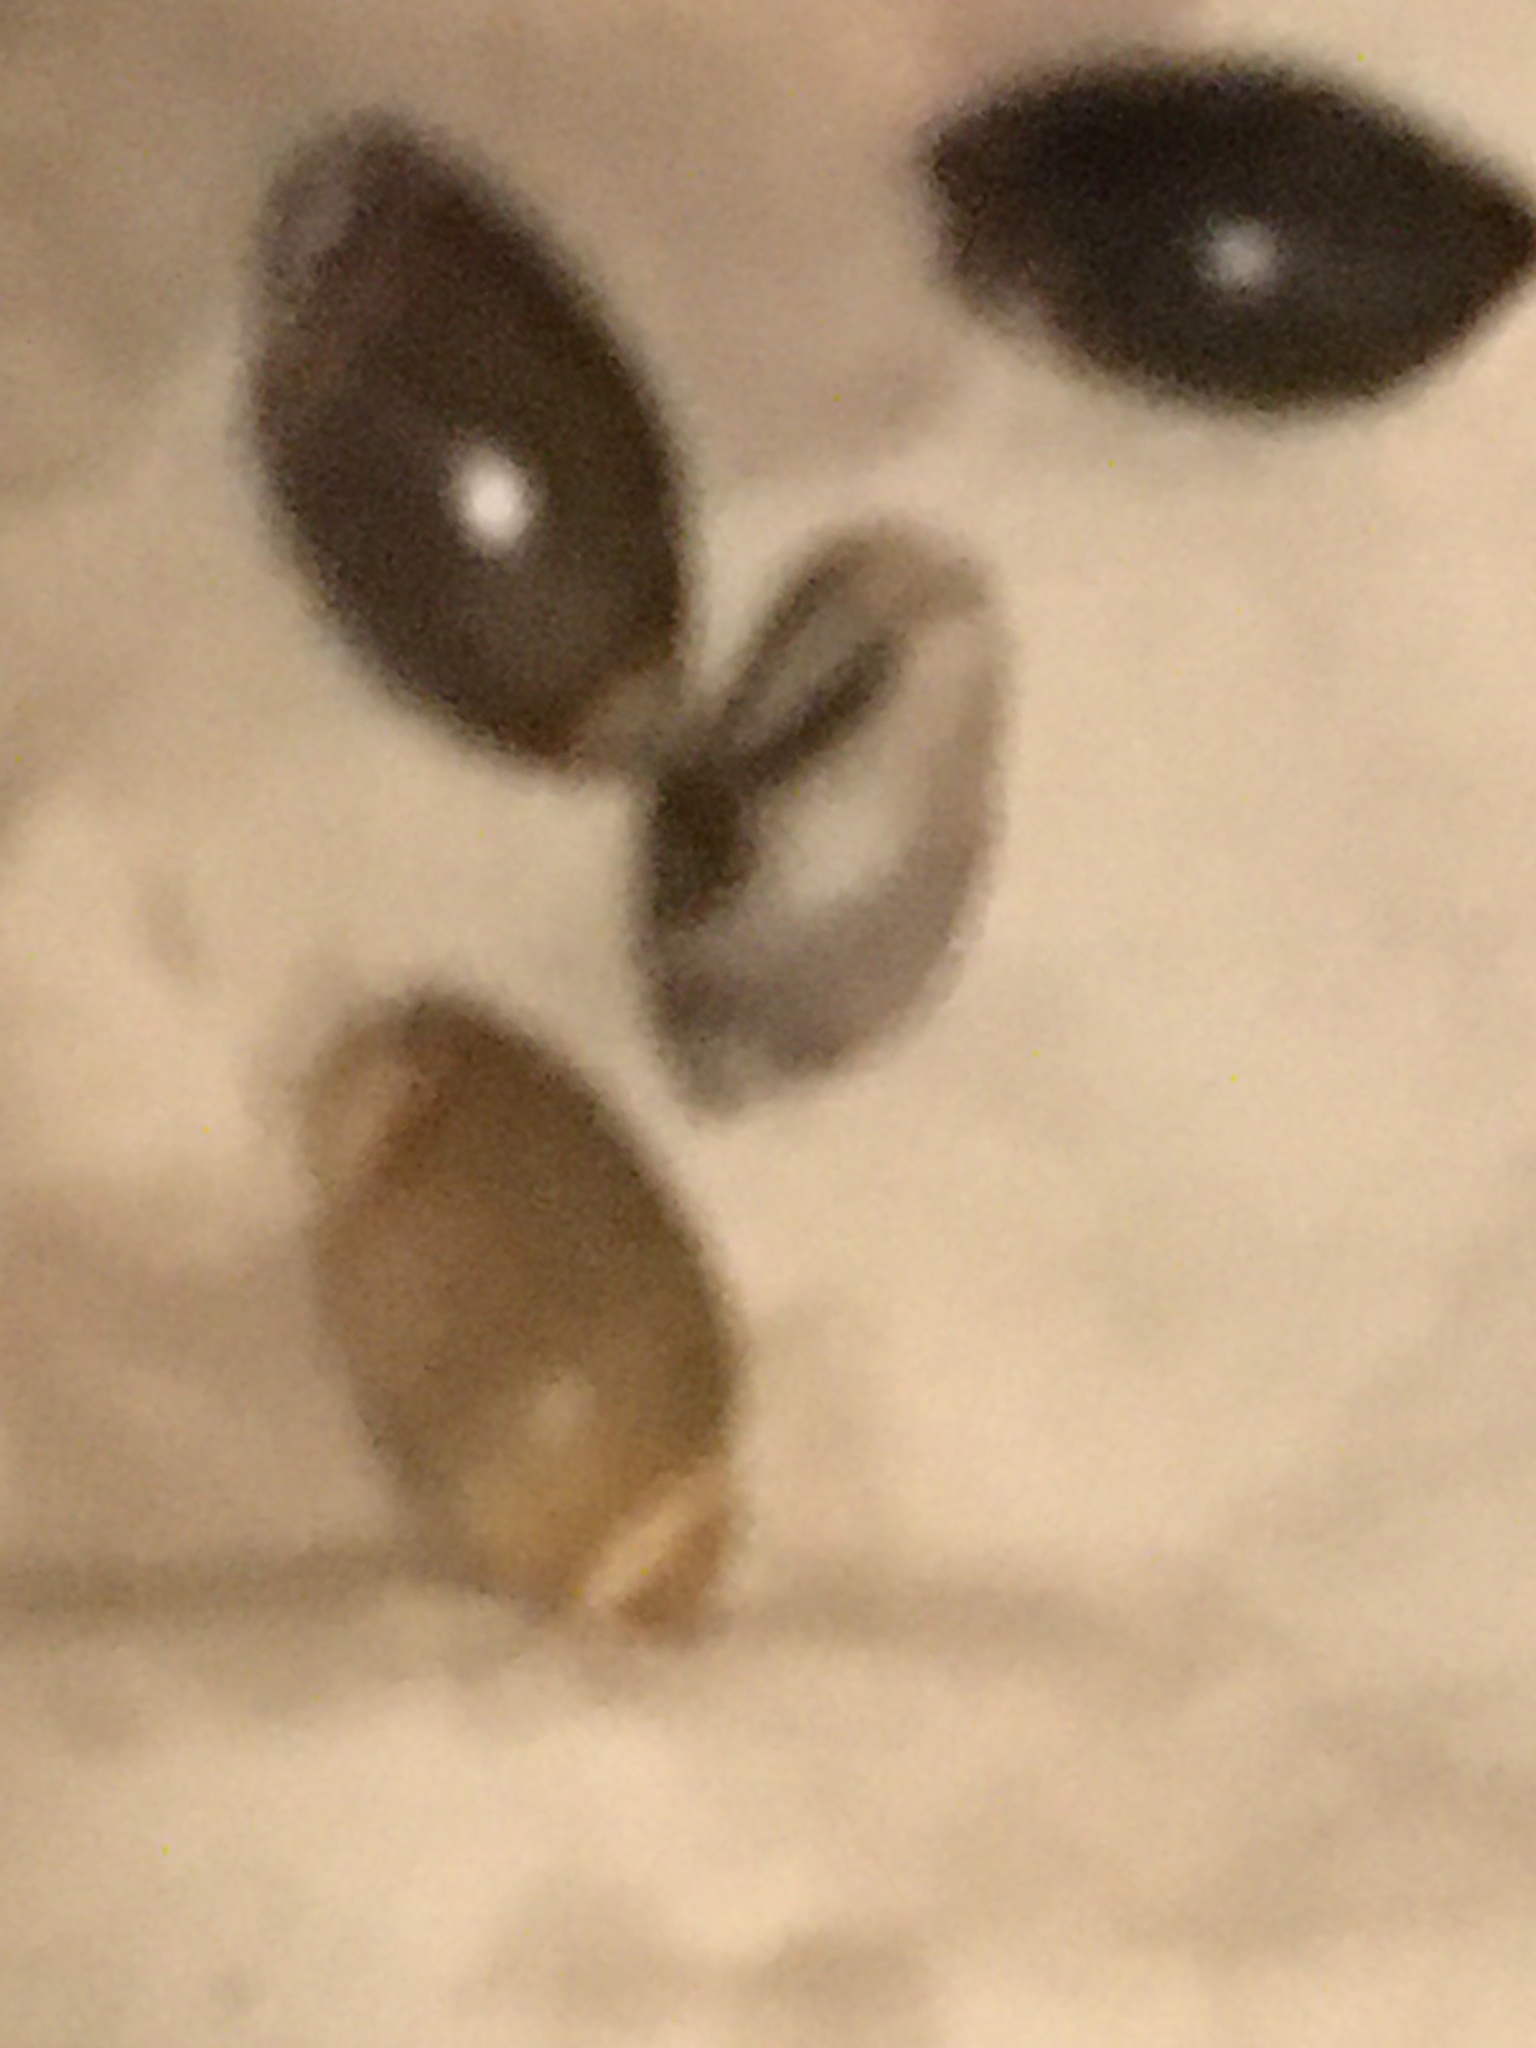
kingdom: Animalia
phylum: Mollusca
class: Gastropoda
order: Neogastropoda
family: Olividae
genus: Callianax
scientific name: Callianax biplicata
